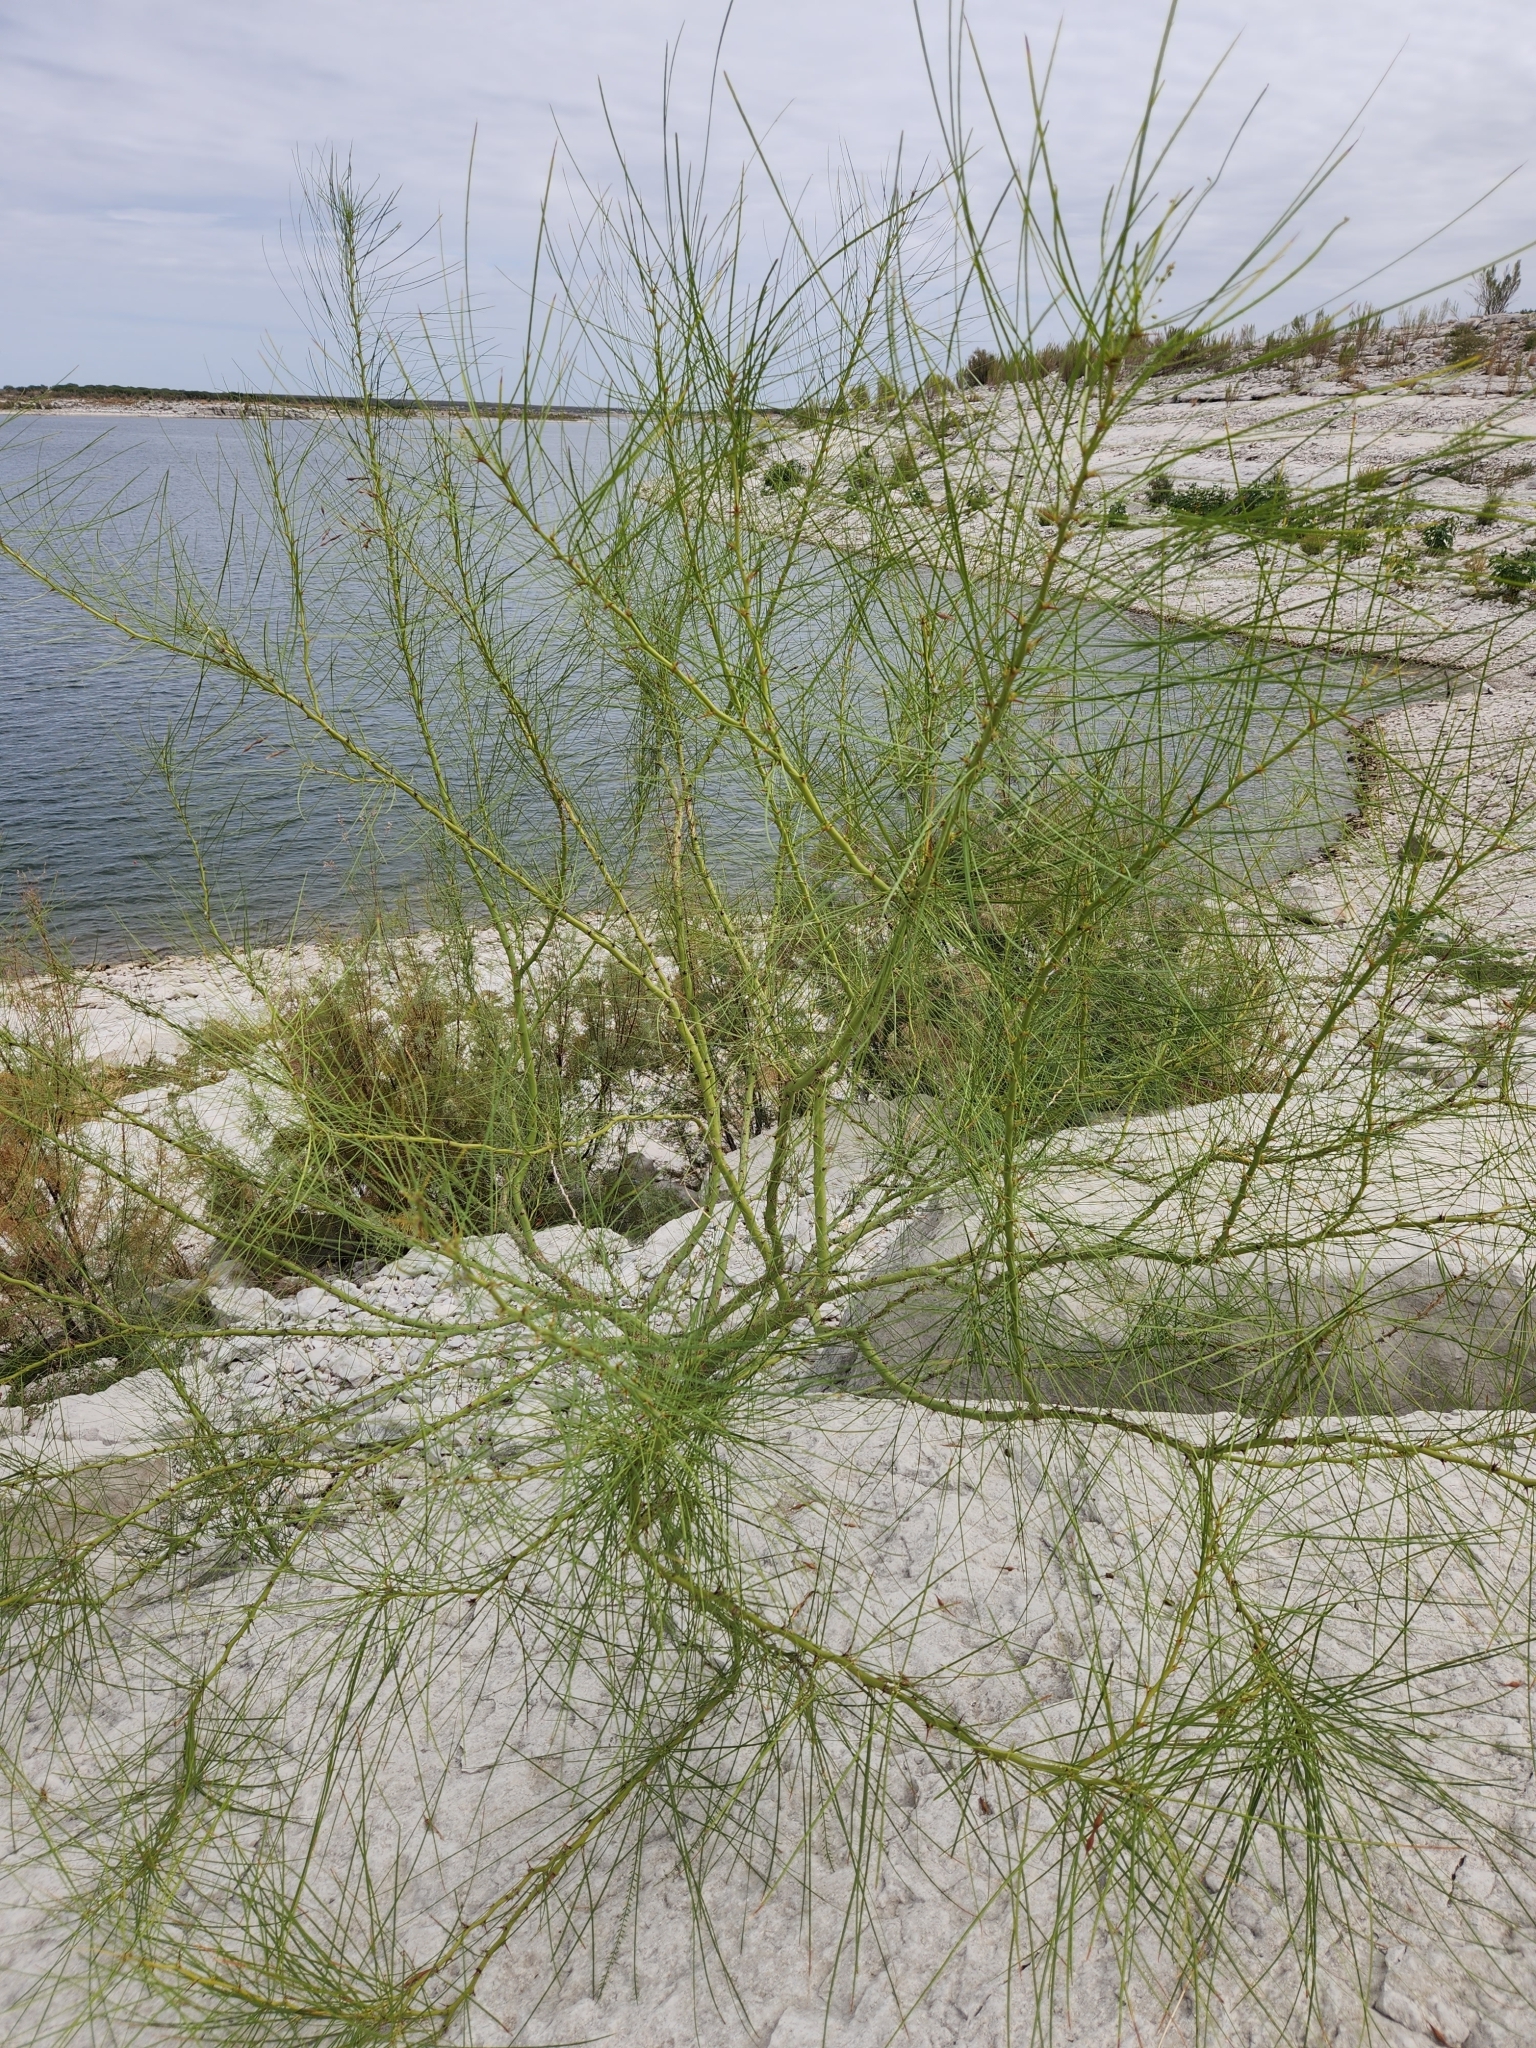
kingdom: Plantae
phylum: Tracheophyta
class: Magnoliopsida
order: Fabales
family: Fabaceae
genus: Parkinsonia
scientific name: Parkinsonia aculeata
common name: Jerusalem thorn
